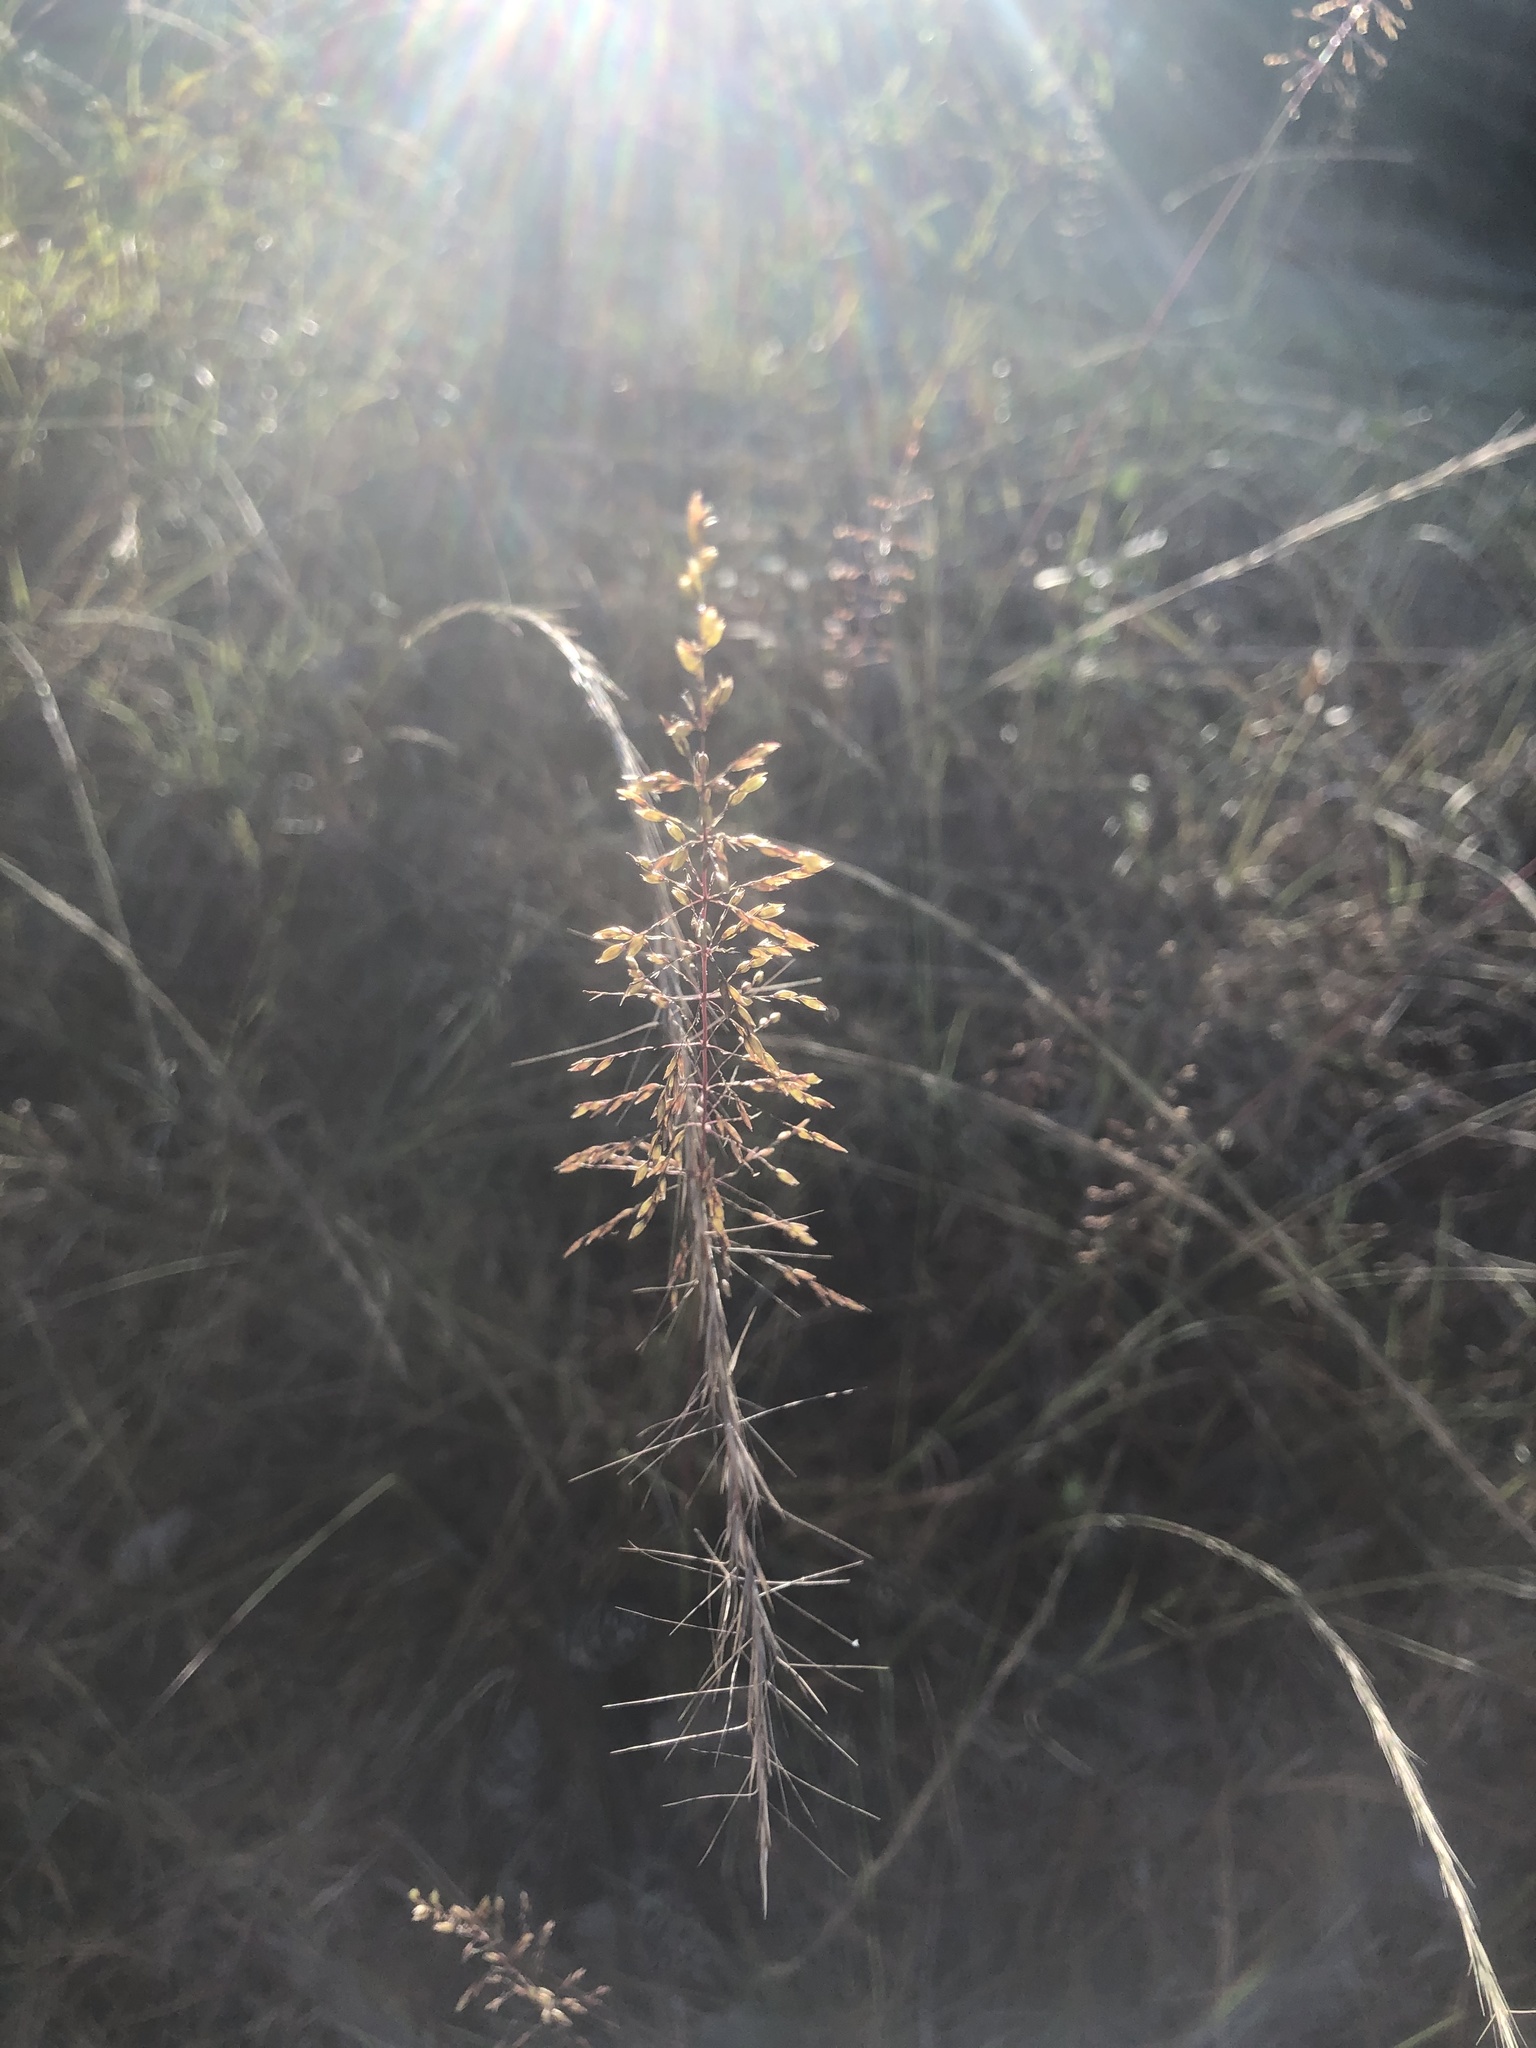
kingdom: Plantae
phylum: Tracheophyta
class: Liliopsida
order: Poales
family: Poaceae
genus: Sporobolus
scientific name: Sporobolus junceus
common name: Lizard grass
